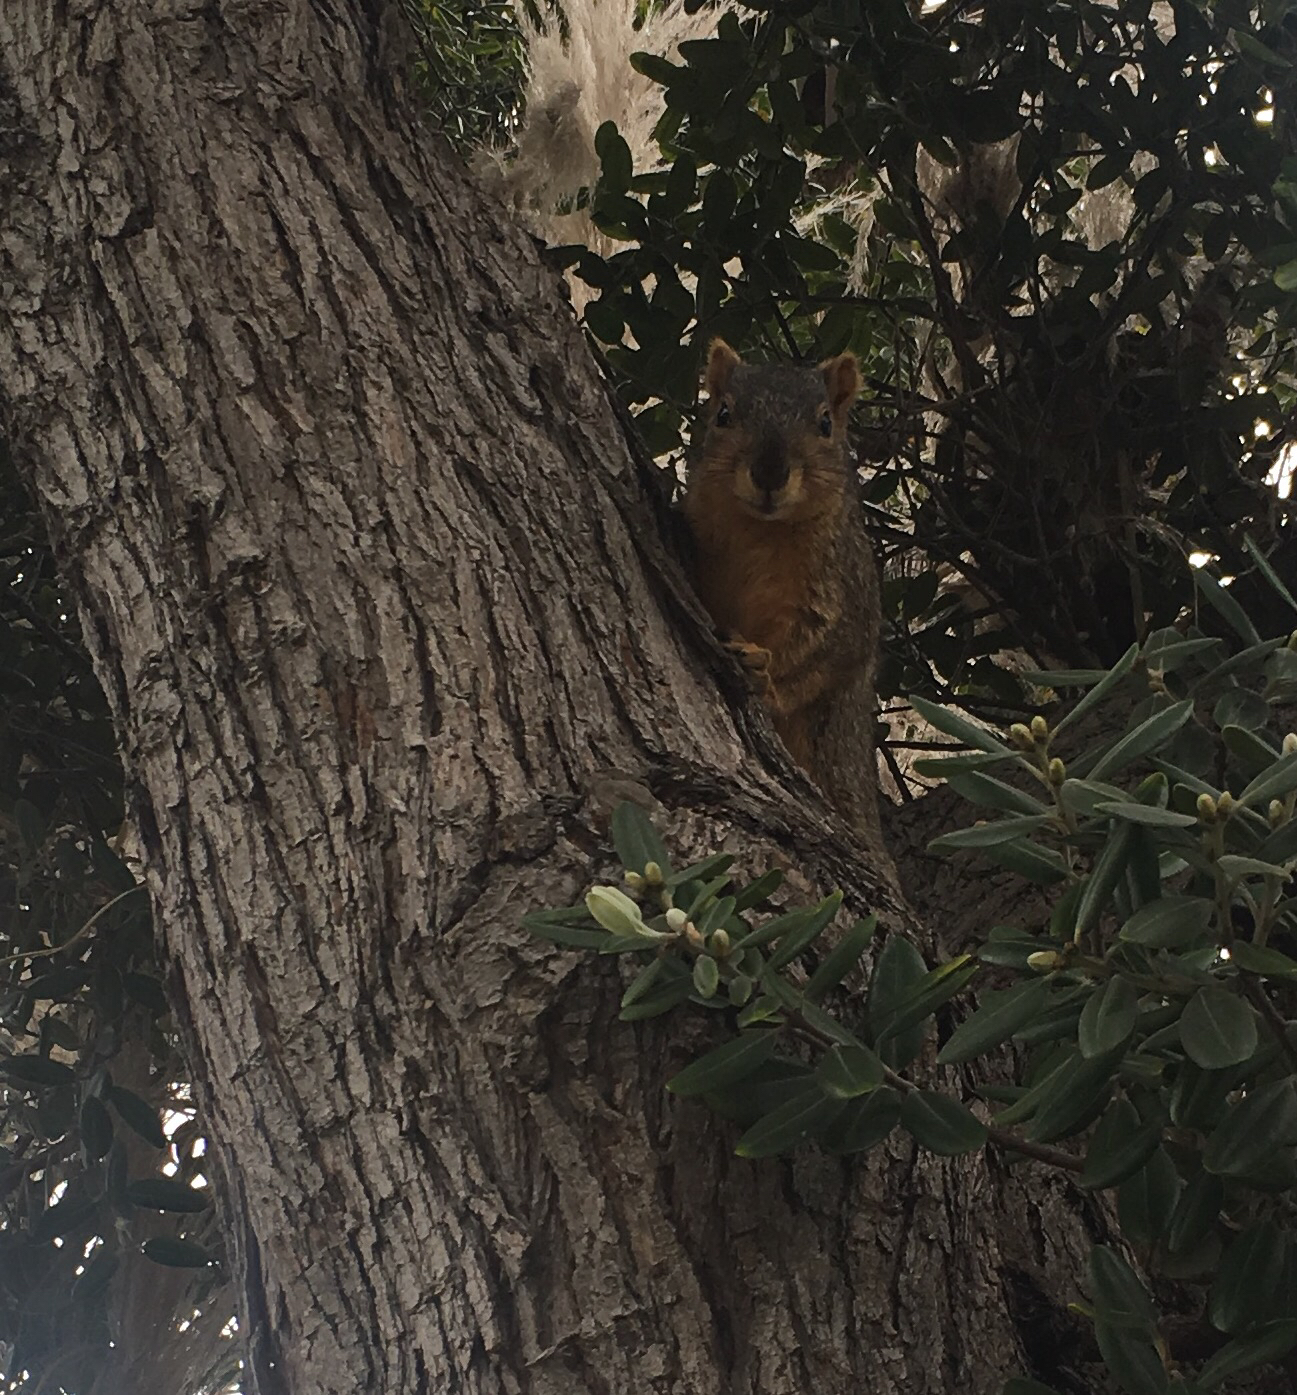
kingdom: Animalia
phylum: Chordata
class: Mammalia
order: Rodentia
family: Sciuridae
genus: Sciurus
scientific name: Sciurus niger
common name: Fox squirrel
